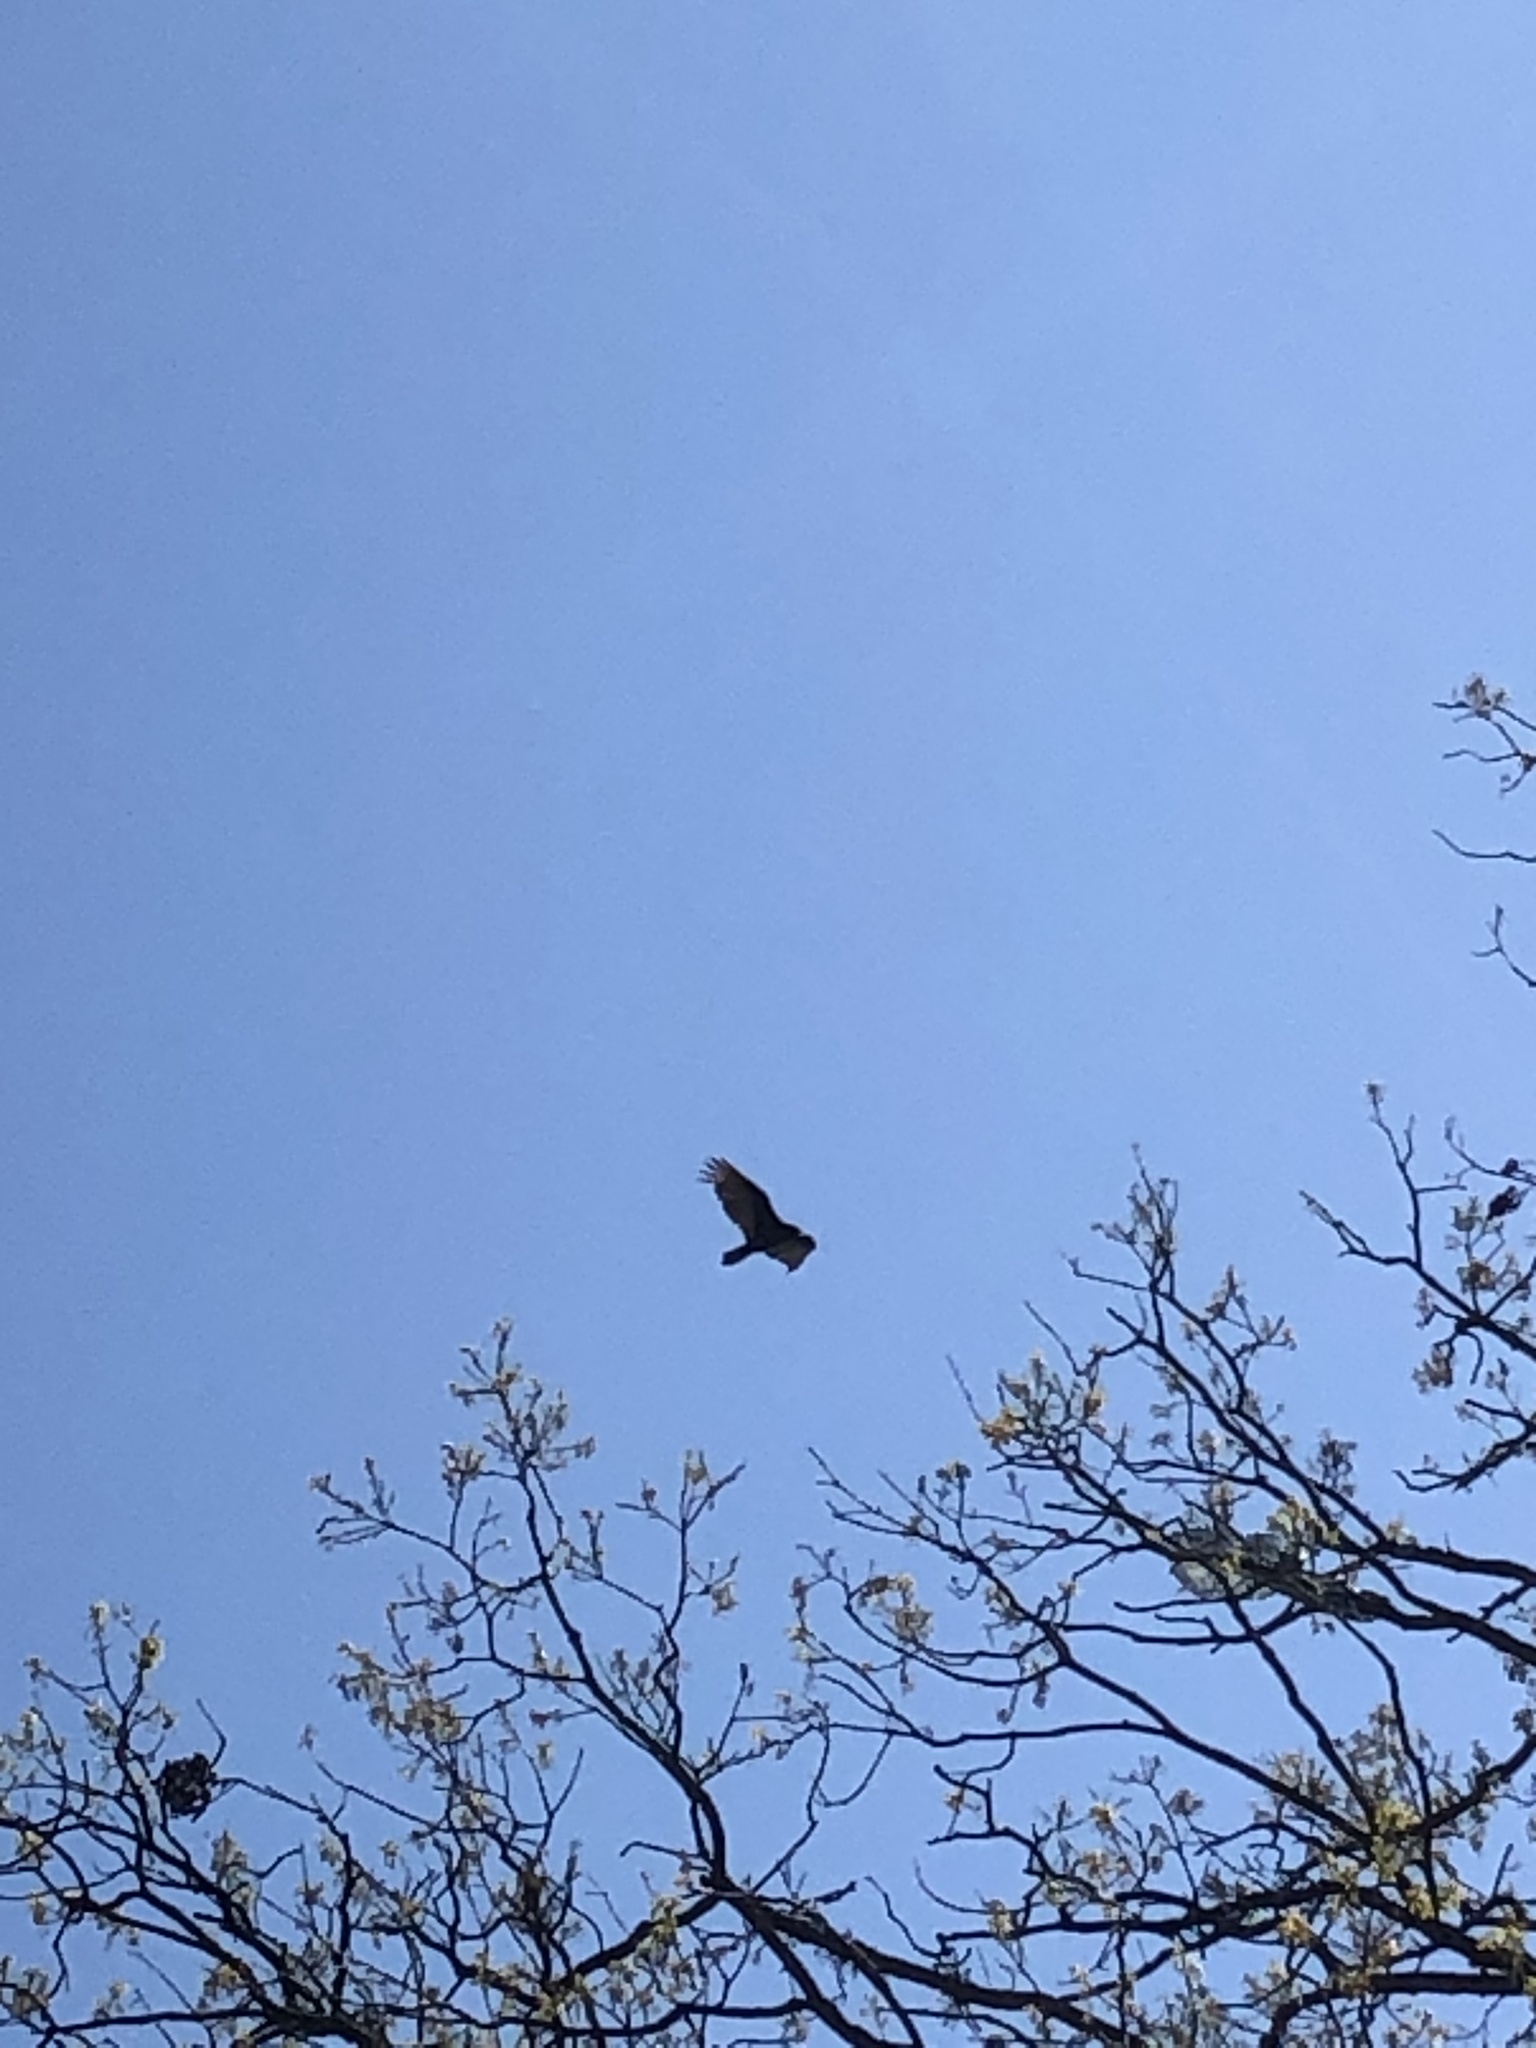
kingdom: Animalia
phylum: Chordata
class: Aves
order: Accipitriformes
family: Cathartidae
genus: Cathartes
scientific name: Cathartes aura
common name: Turkey vulture
